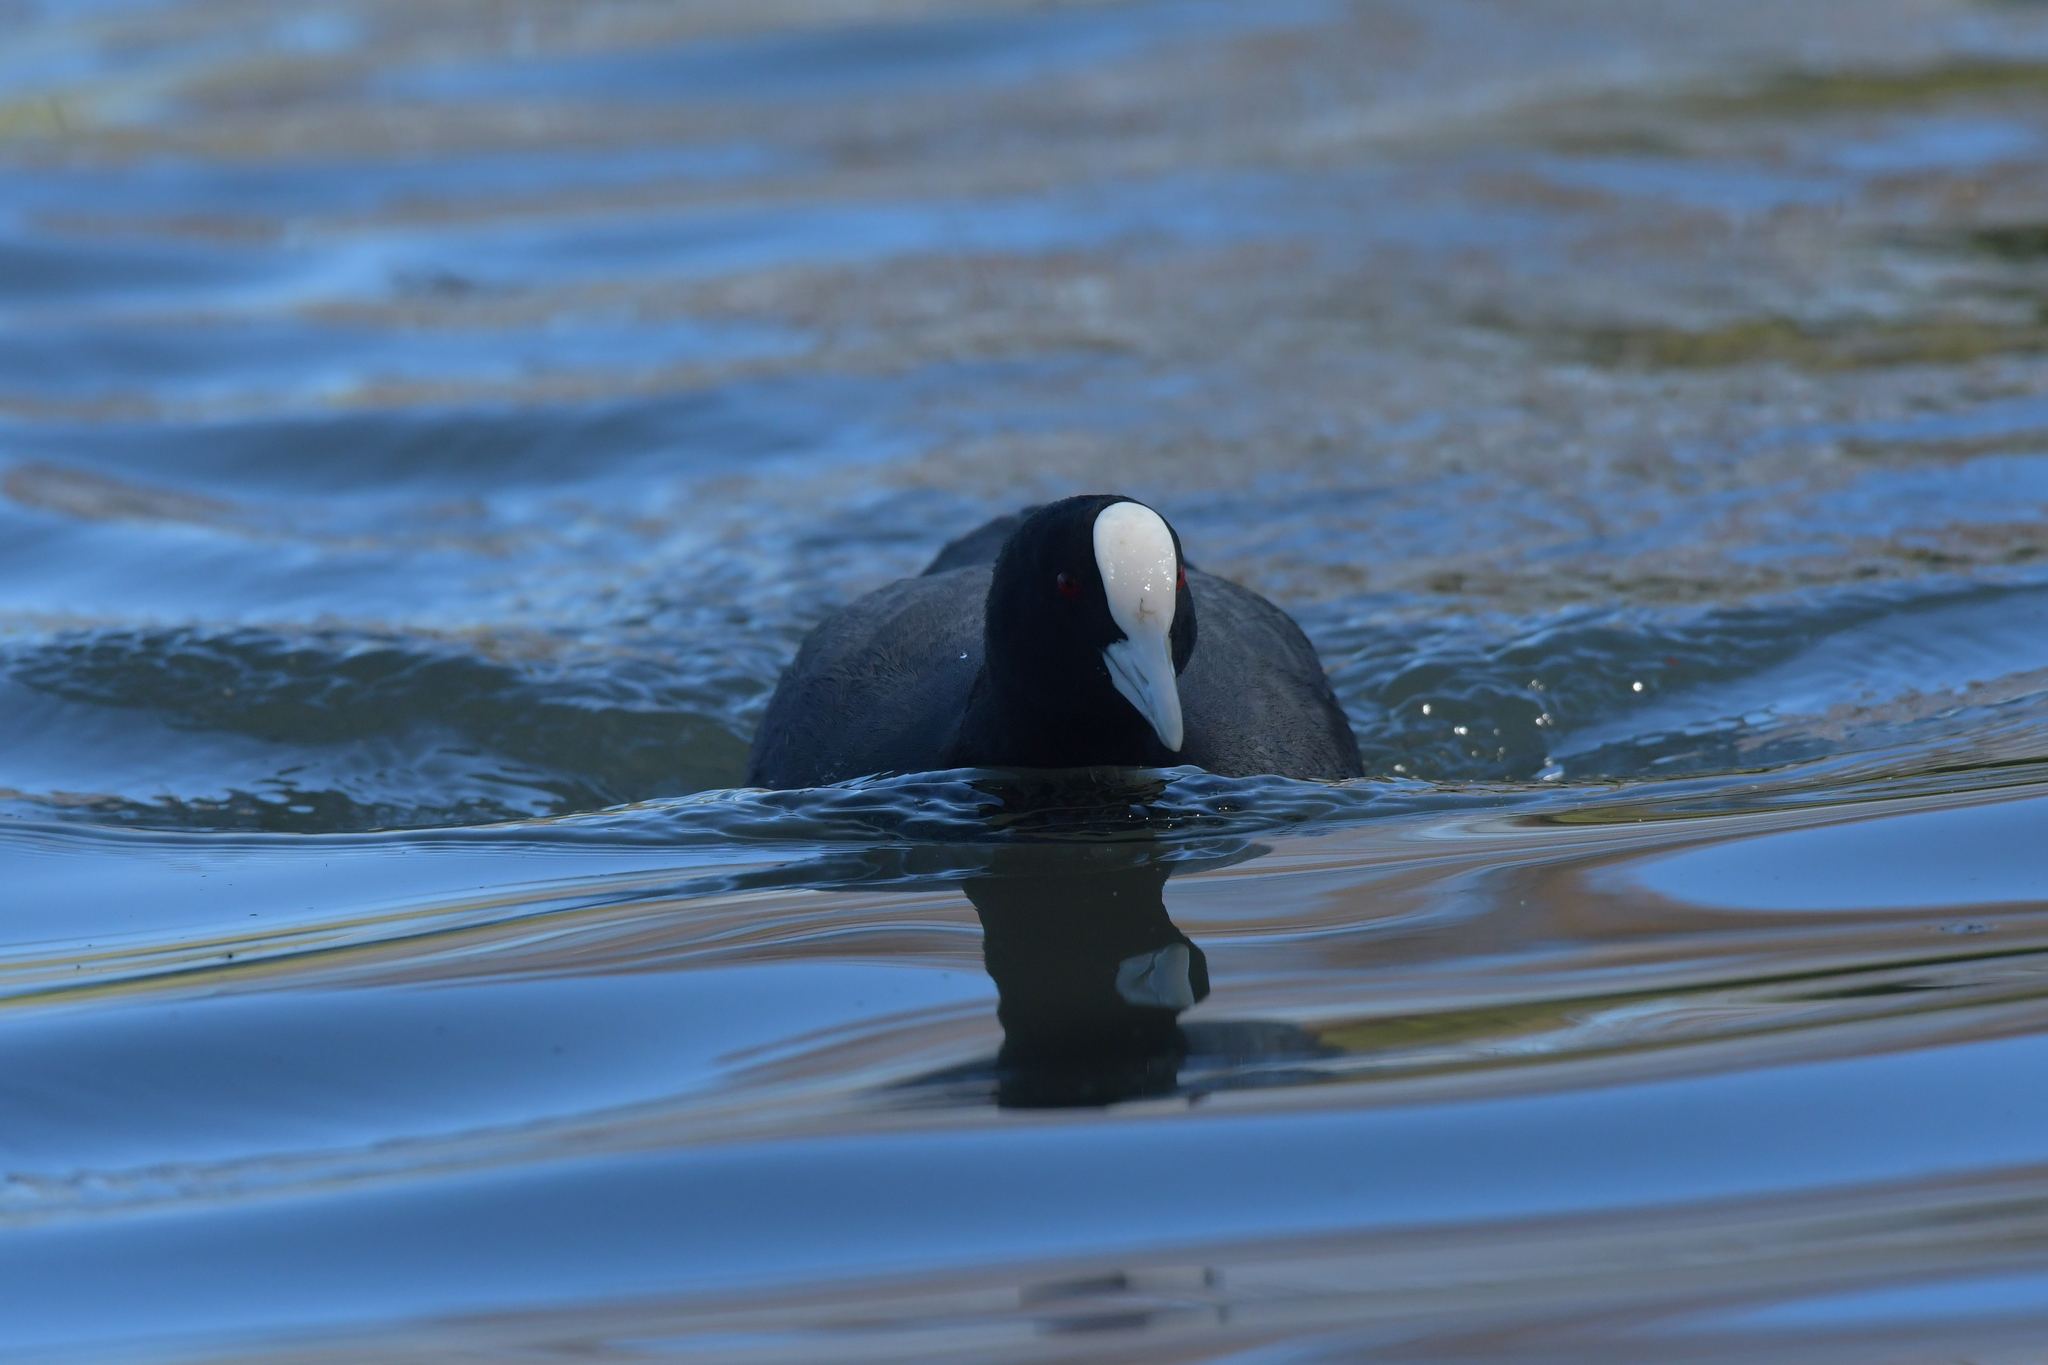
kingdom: Animalia
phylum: Chordata
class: Aves
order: Gruiformes
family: Rallidae
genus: Fulica
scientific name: Fulica atra
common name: Eurasian coot
